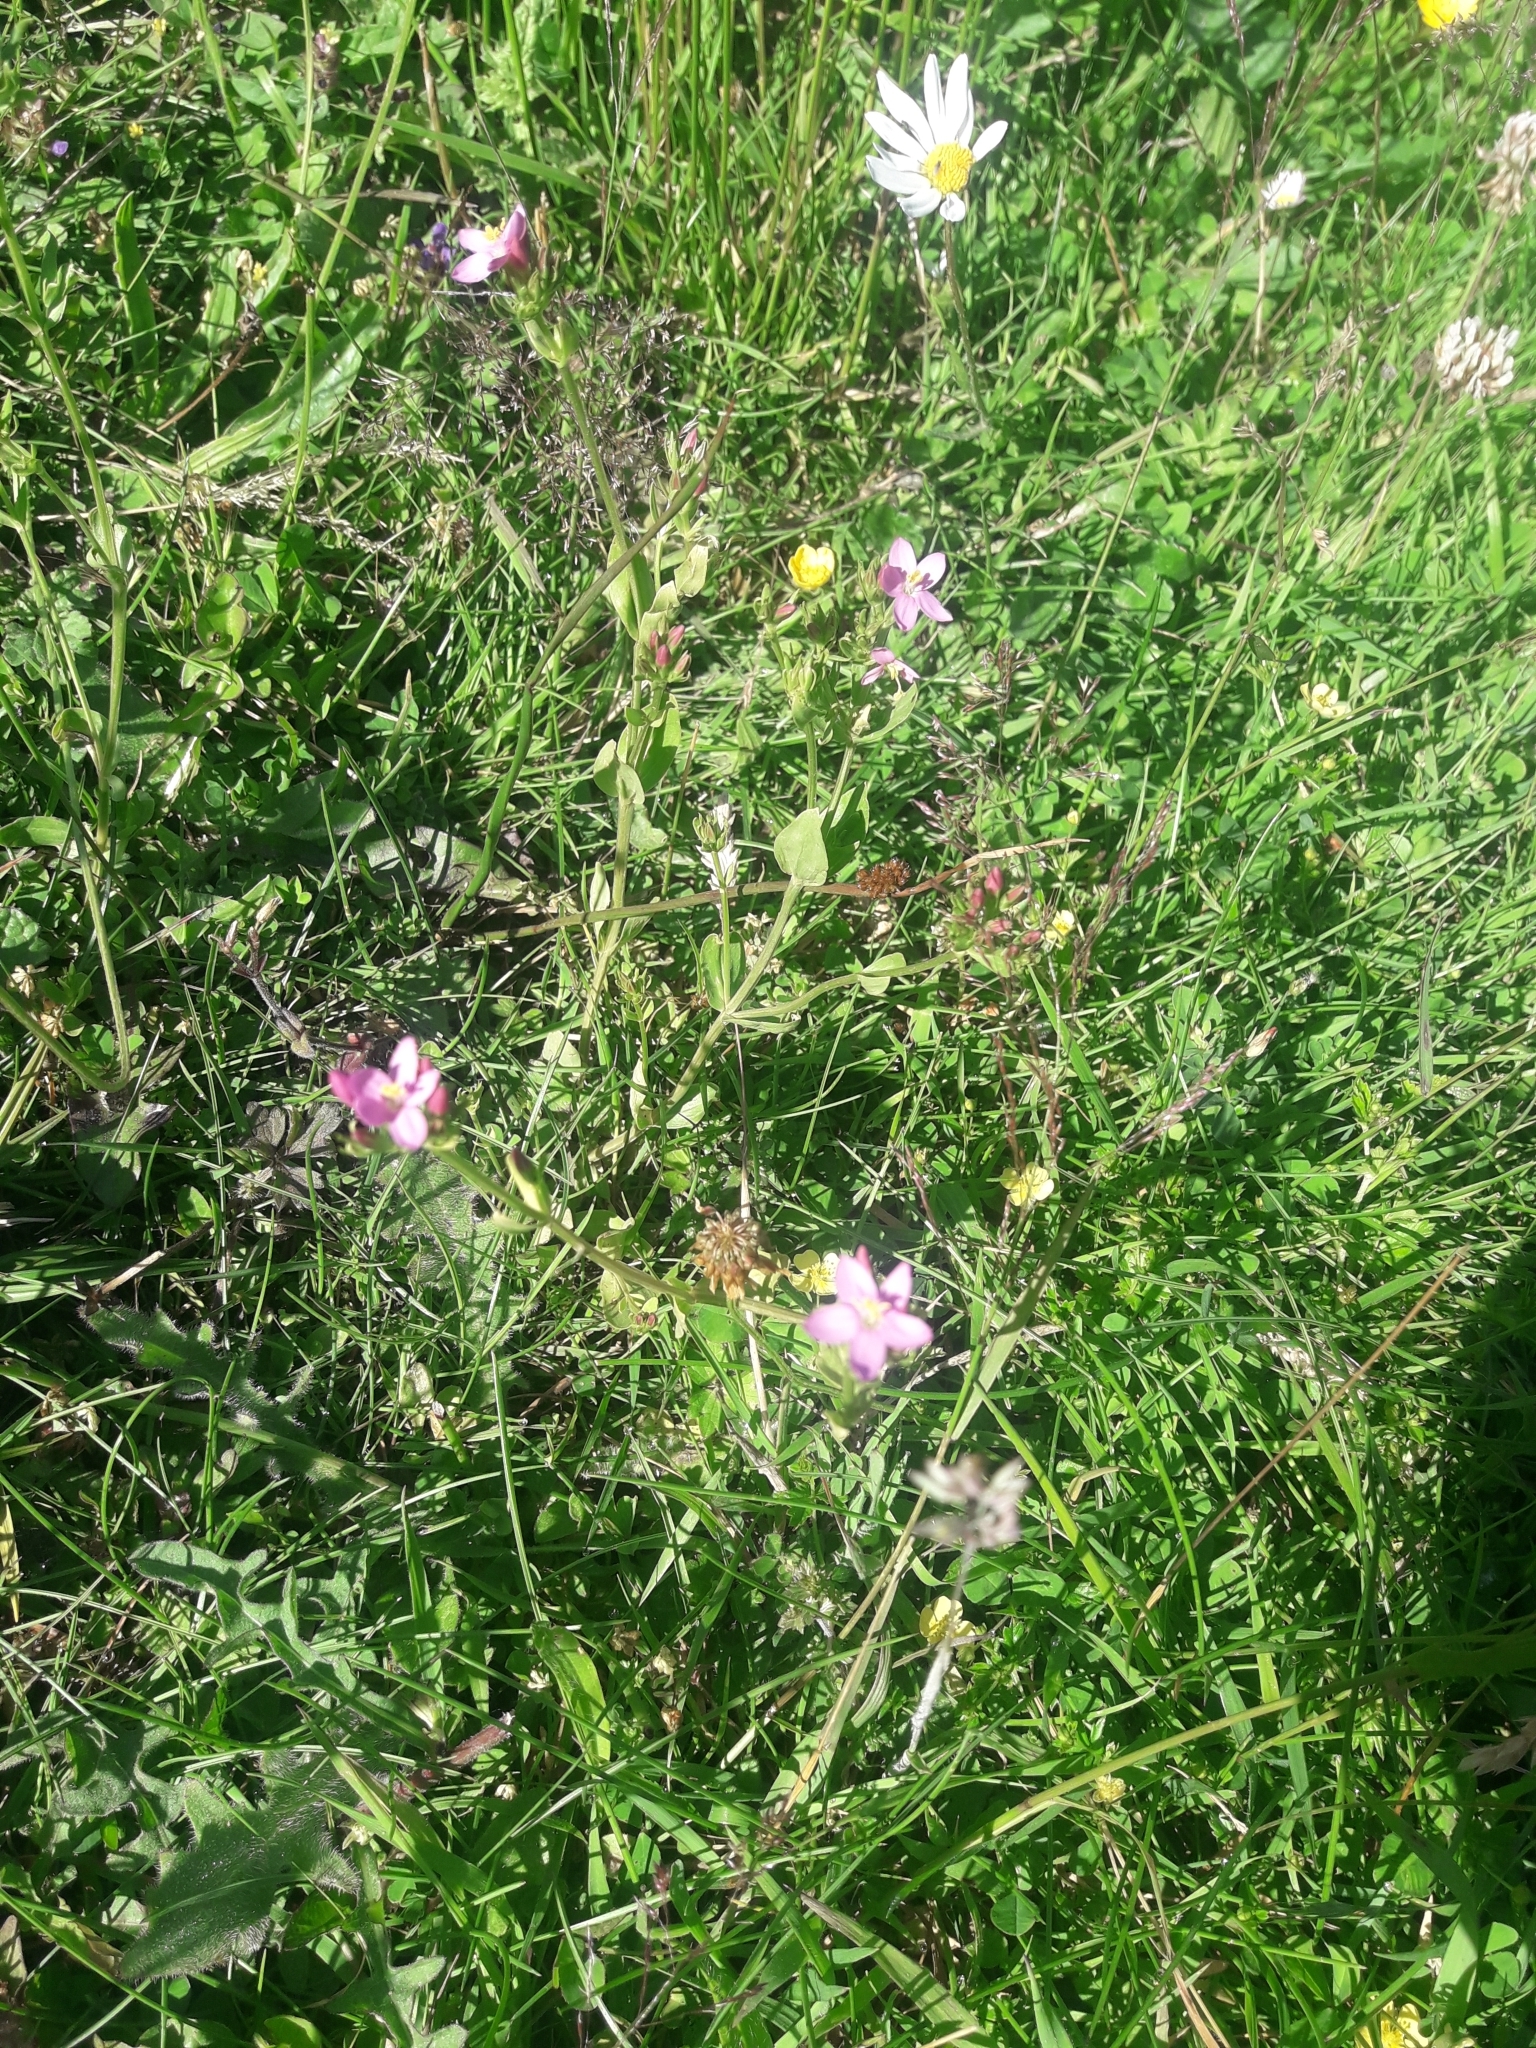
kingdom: Plantae
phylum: Tracheophyta
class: Magnoliopsida
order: Gentianales
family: Gentianaceae
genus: Centaurium
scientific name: Centaurium erythraea
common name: Common centaury
